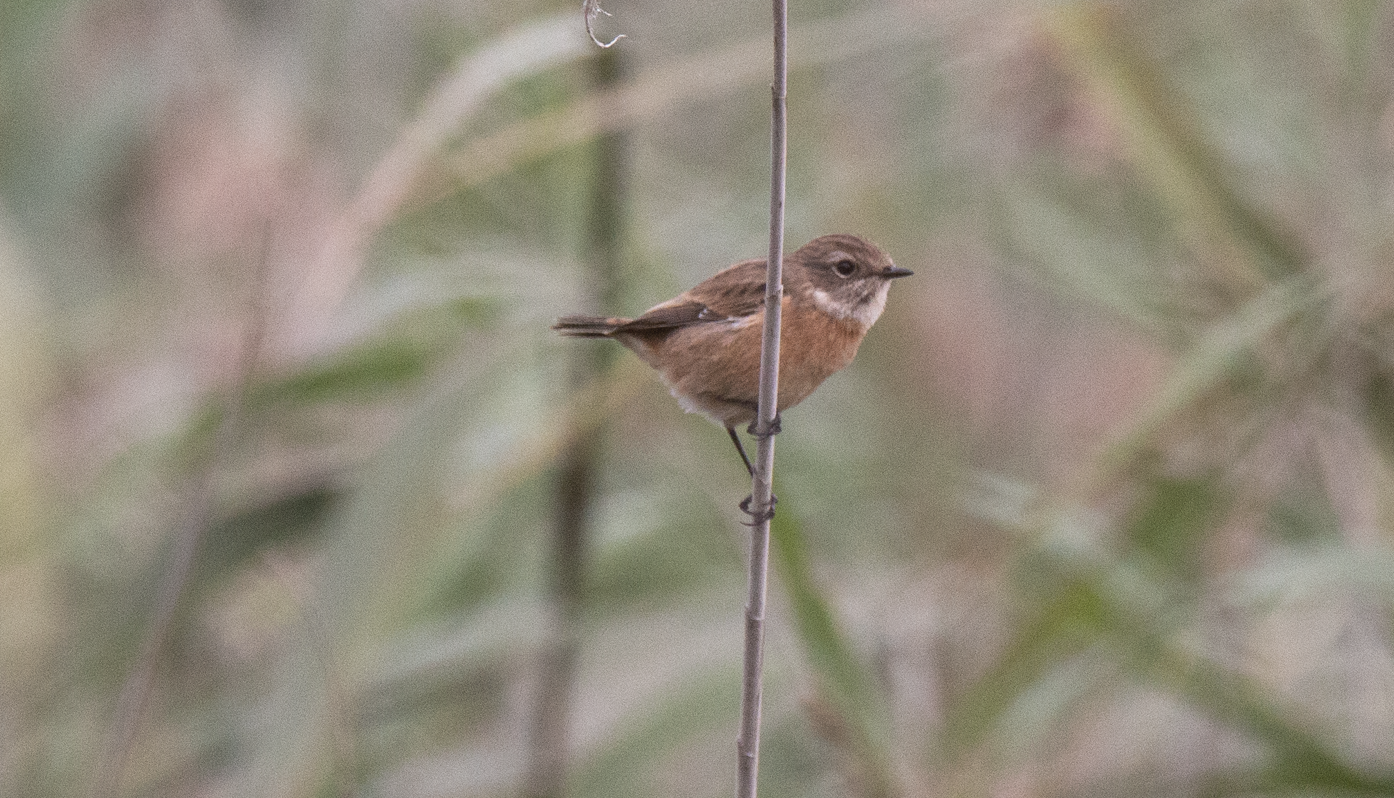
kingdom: Animalia
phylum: Chordata
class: Aves
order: Passeriformes
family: Muscicapidae
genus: Saxicola
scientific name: Saxicola rubicola
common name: European stonechat
